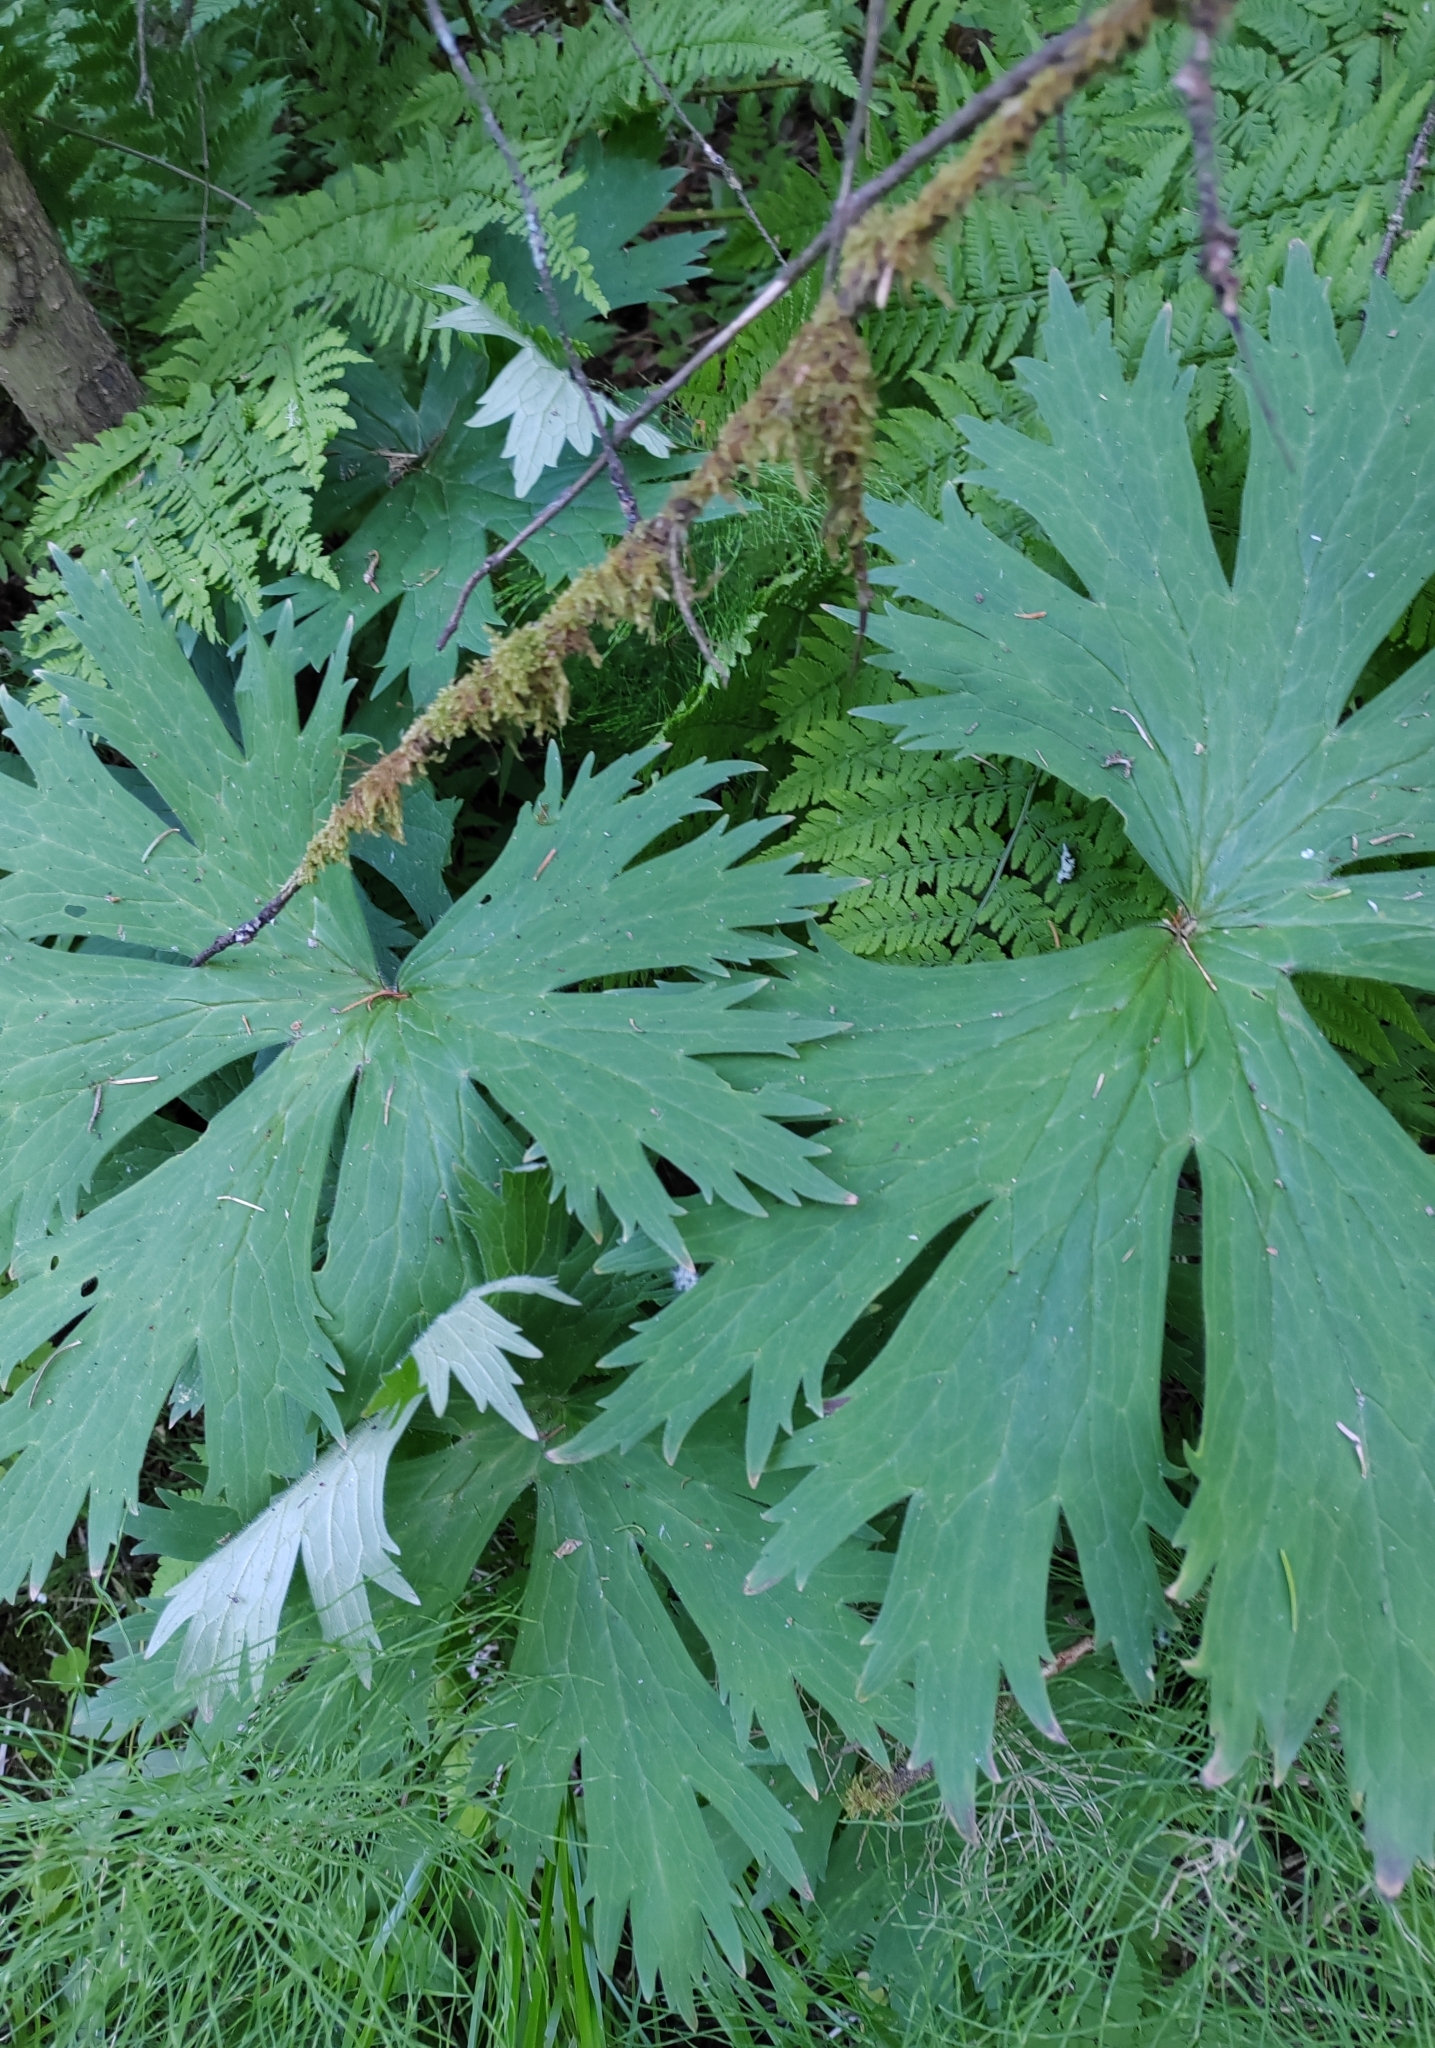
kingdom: Plantae
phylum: Tracheophyta
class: Magnoliopsida
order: Ranunculales
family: Ranunculaceae
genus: Aconitum
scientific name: Aconitum septentrionale
